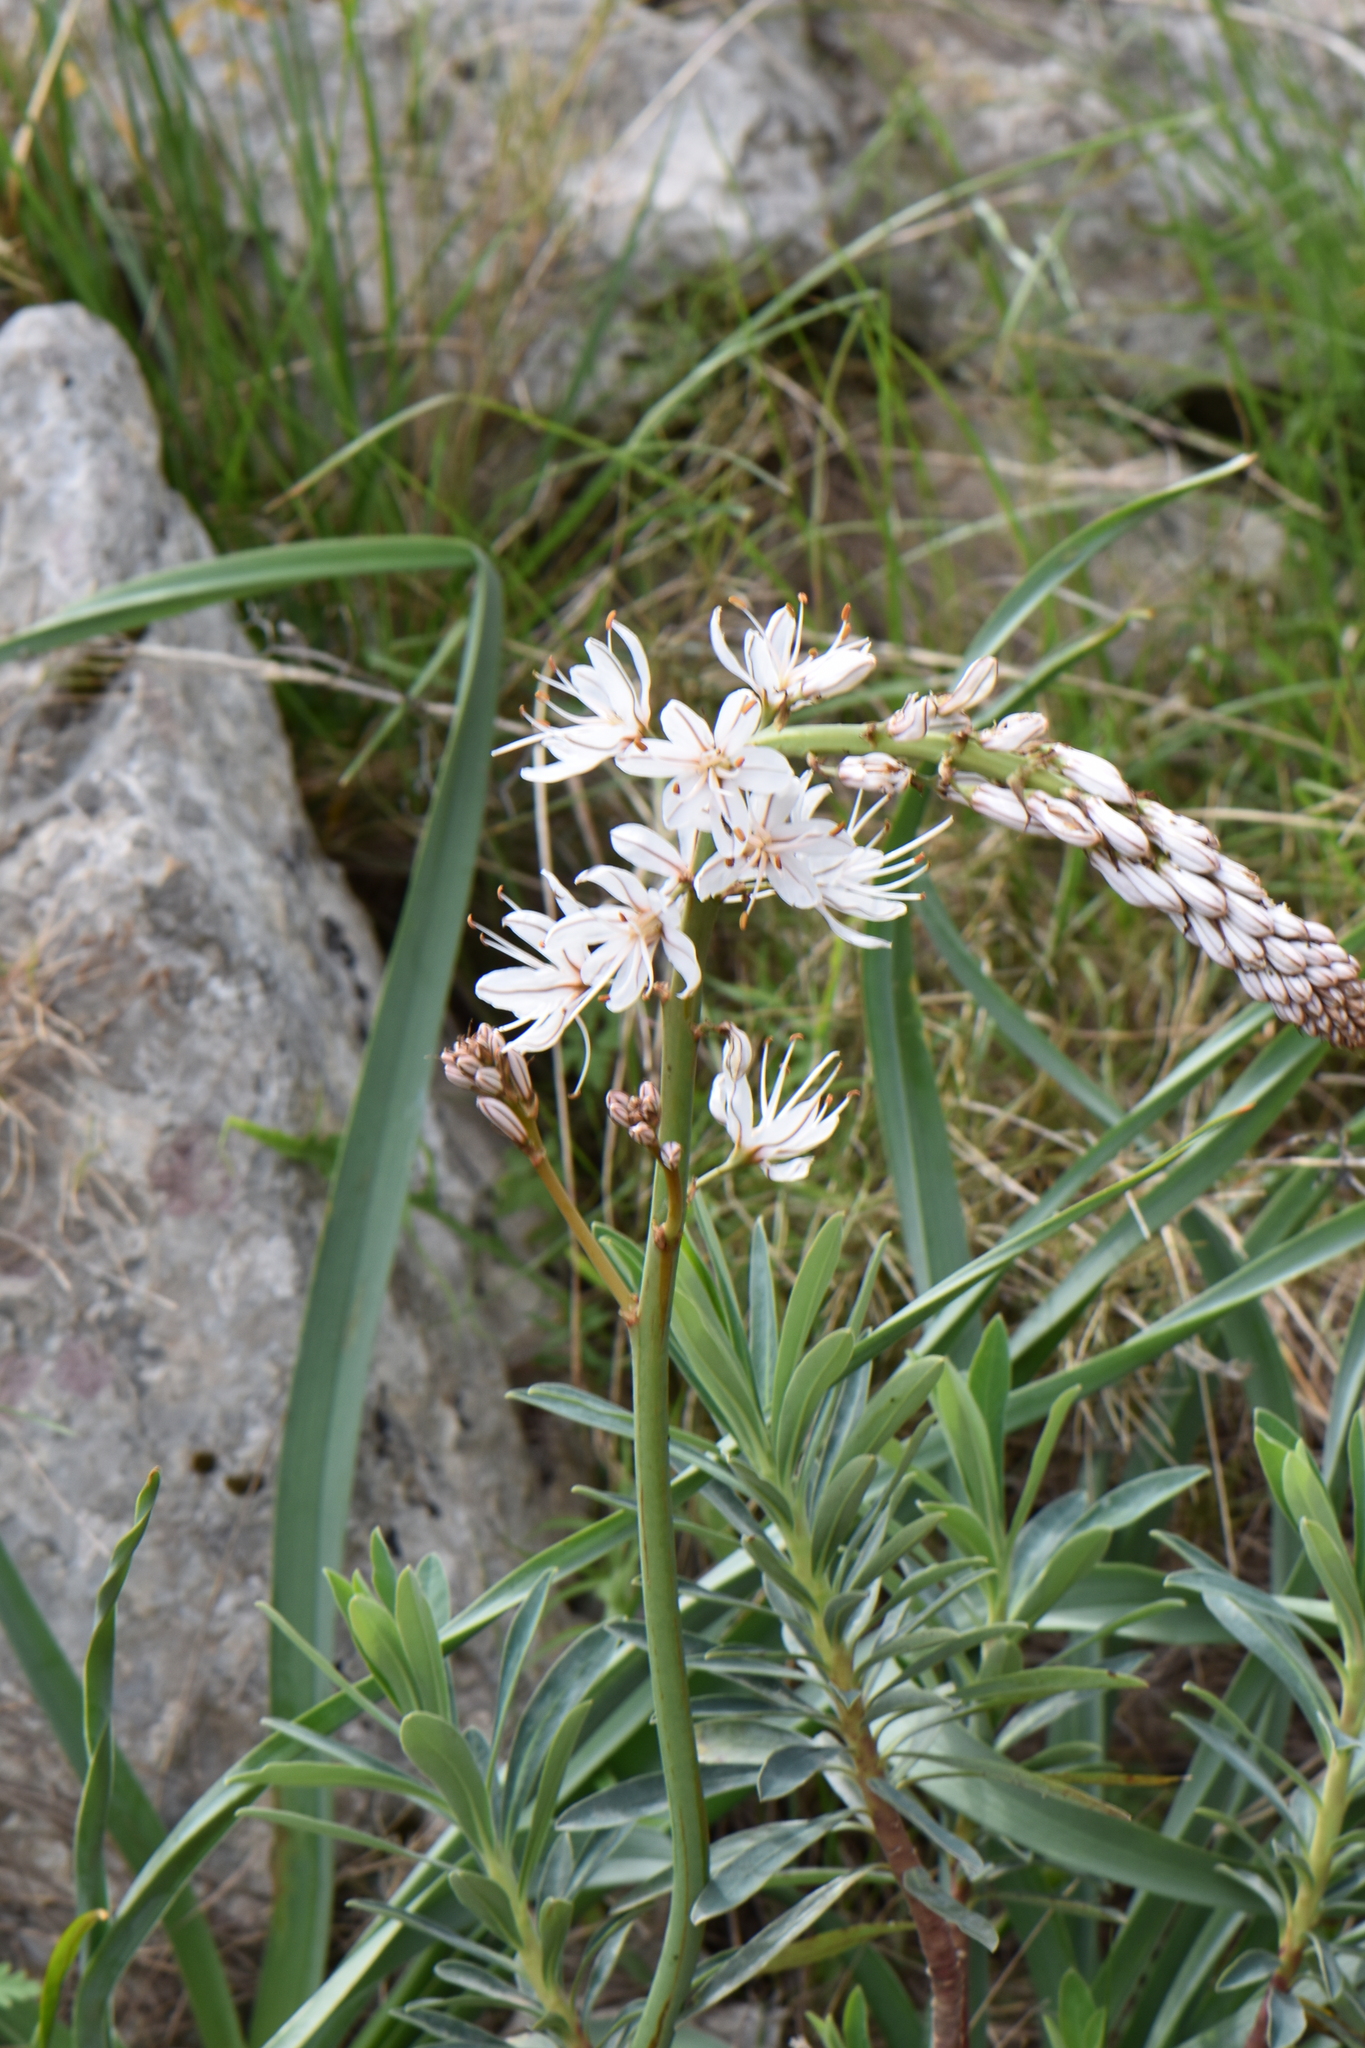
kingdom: Plantae
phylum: Tracheophyta
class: Liliopsida
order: Asparagales
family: Asphodelaceae
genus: Asphodelus
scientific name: Asphodelus cerasifer
